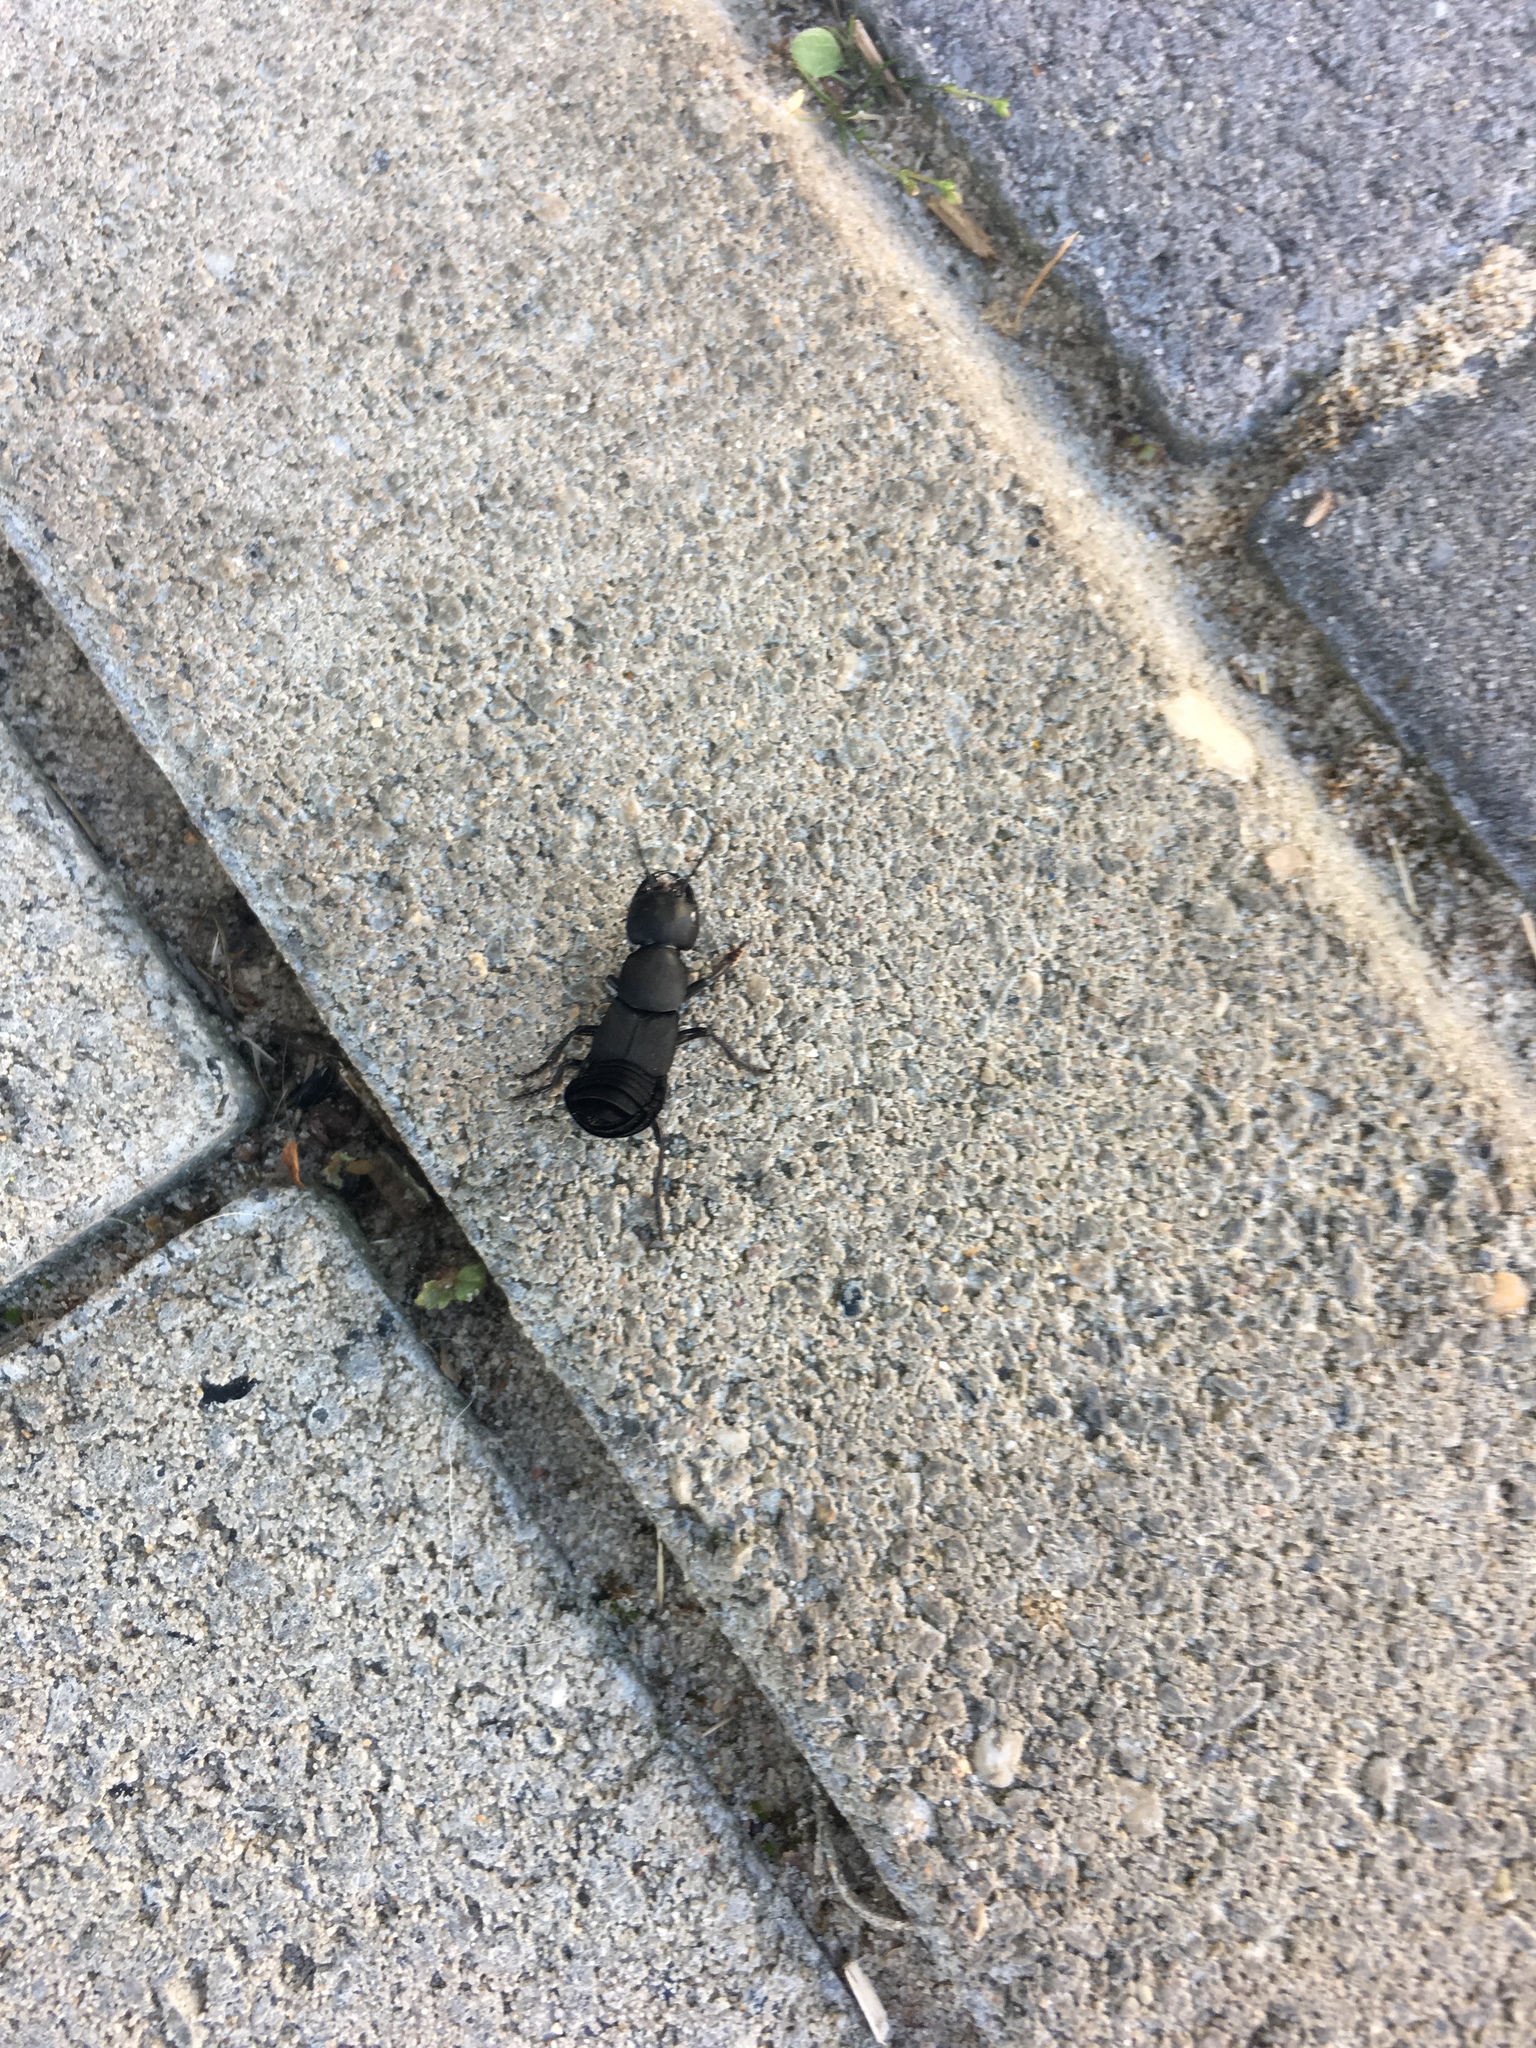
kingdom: Animalia
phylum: Arthropoda
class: Insecta
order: Coleoptera
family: Staphylinidae
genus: Ocypus
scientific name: Ocypus olens
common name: Devil's coach-horse
